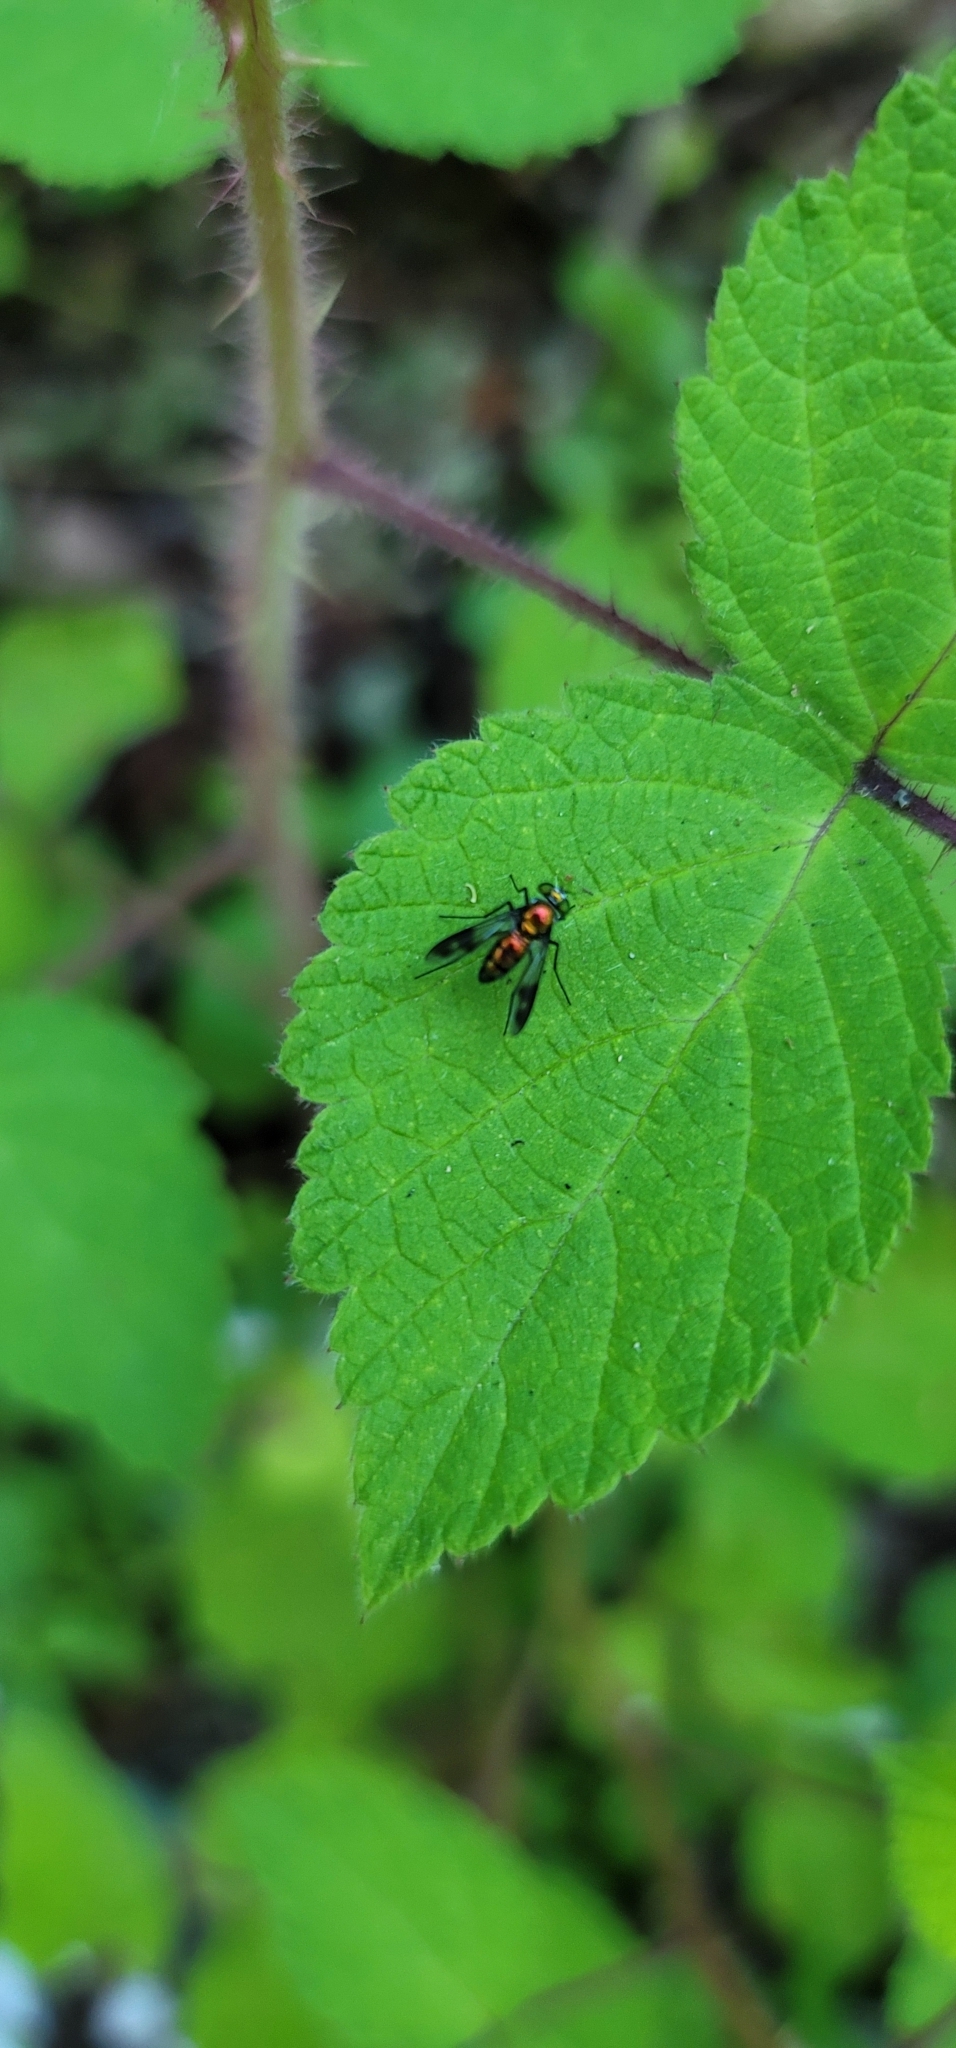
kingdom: Animalia
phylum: Arthropoda
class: Insecta
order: Diptera
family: Dolichopodidae
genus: Condylostylus
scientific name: Condylostylus patibulatus
